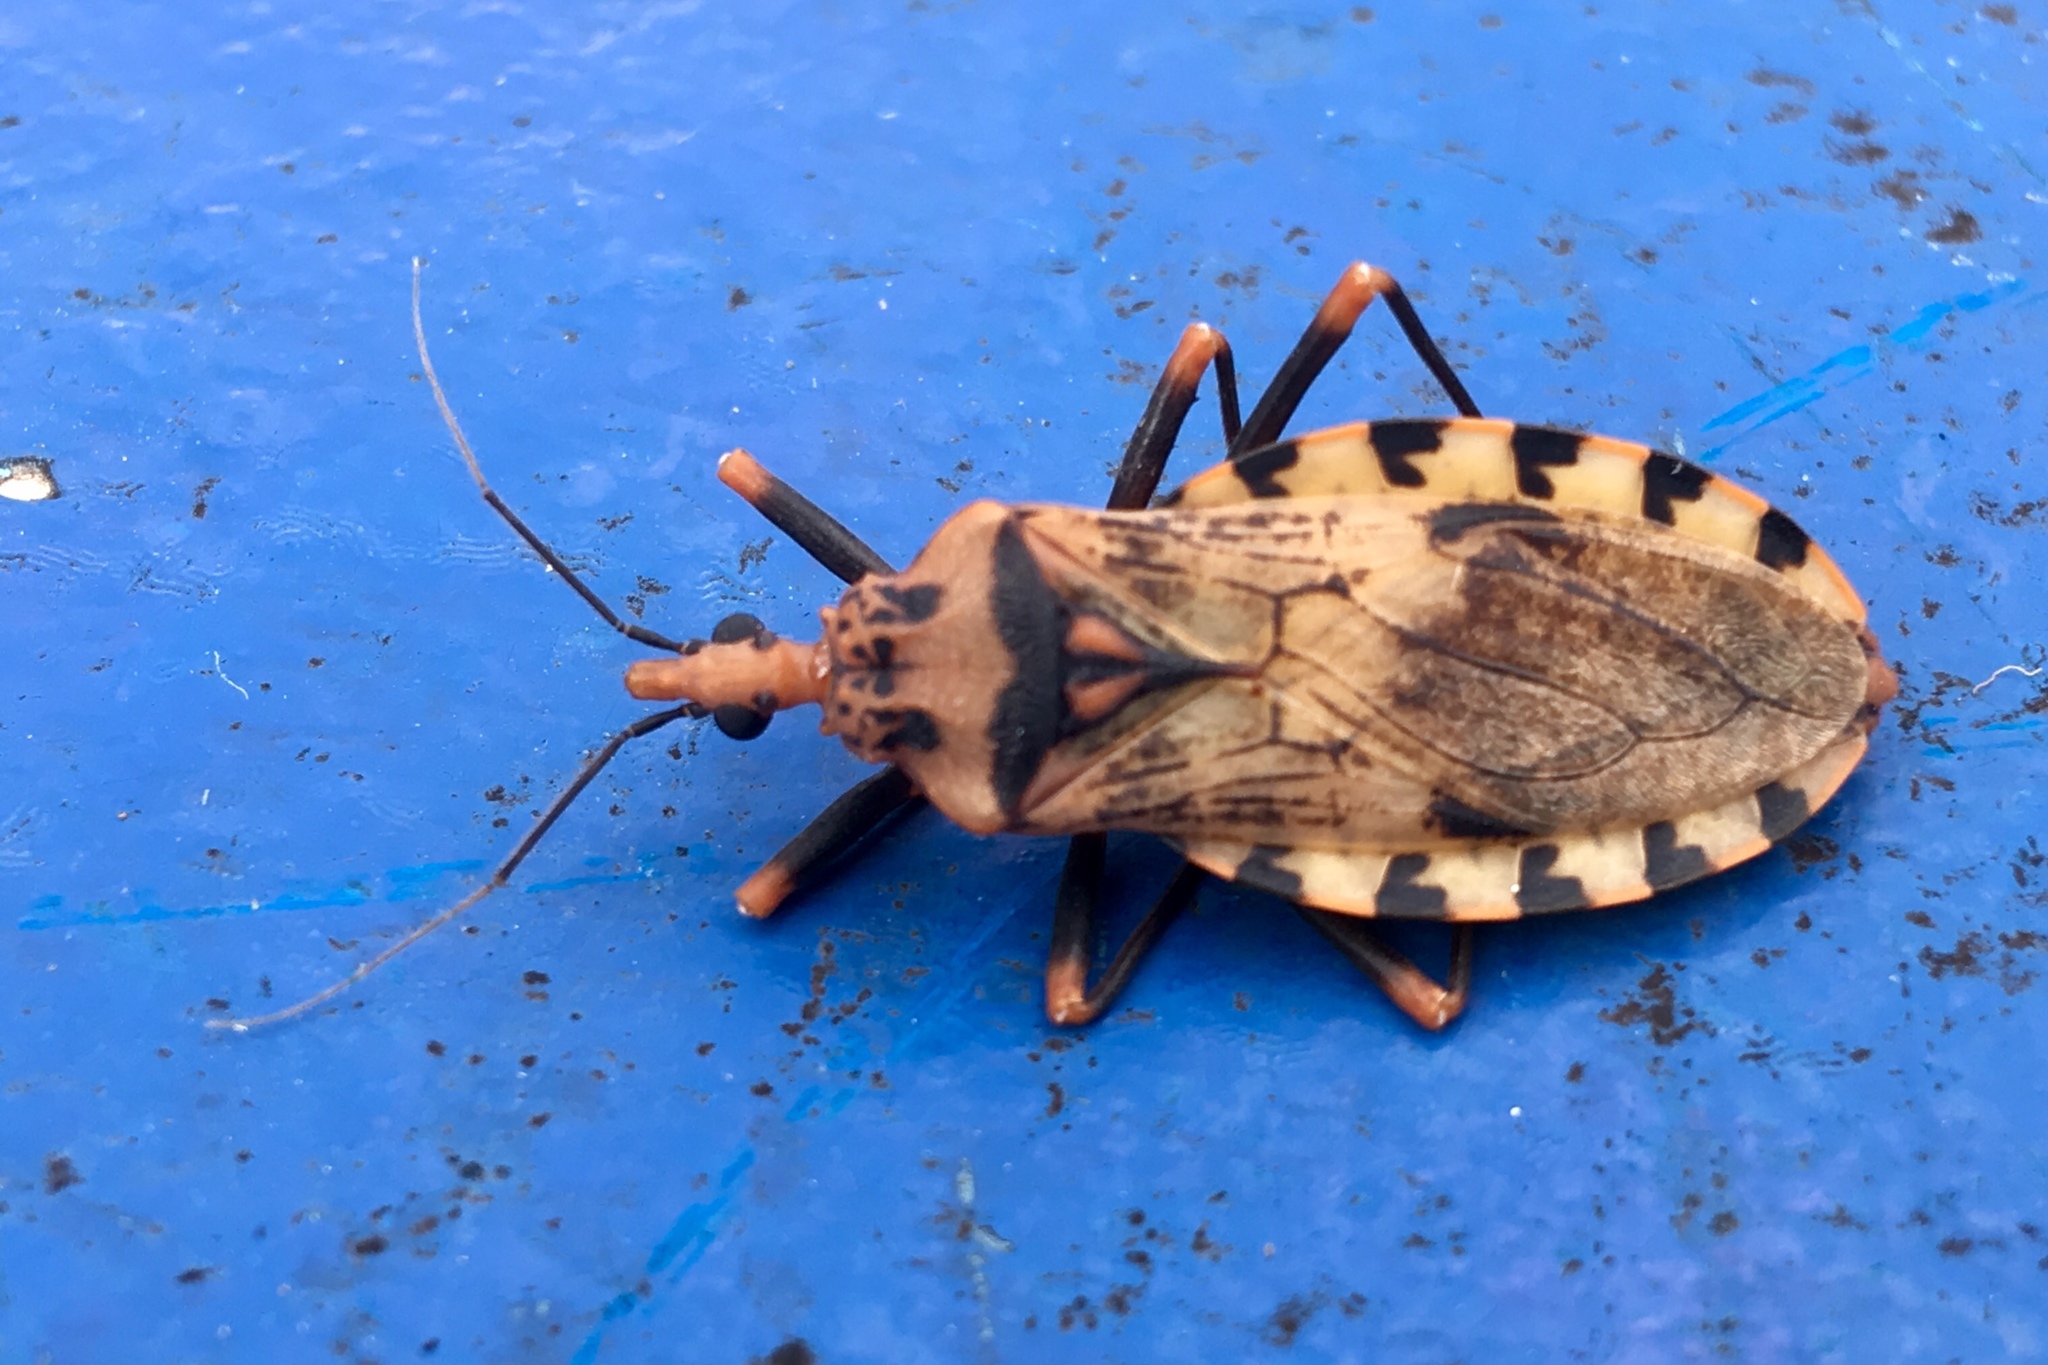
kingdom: Animalia
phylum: Arthropoda
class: Insecta
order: Hemiptera
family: Reduviidae
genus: Panstrongylus
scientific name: Panstrongylus geniculatus
